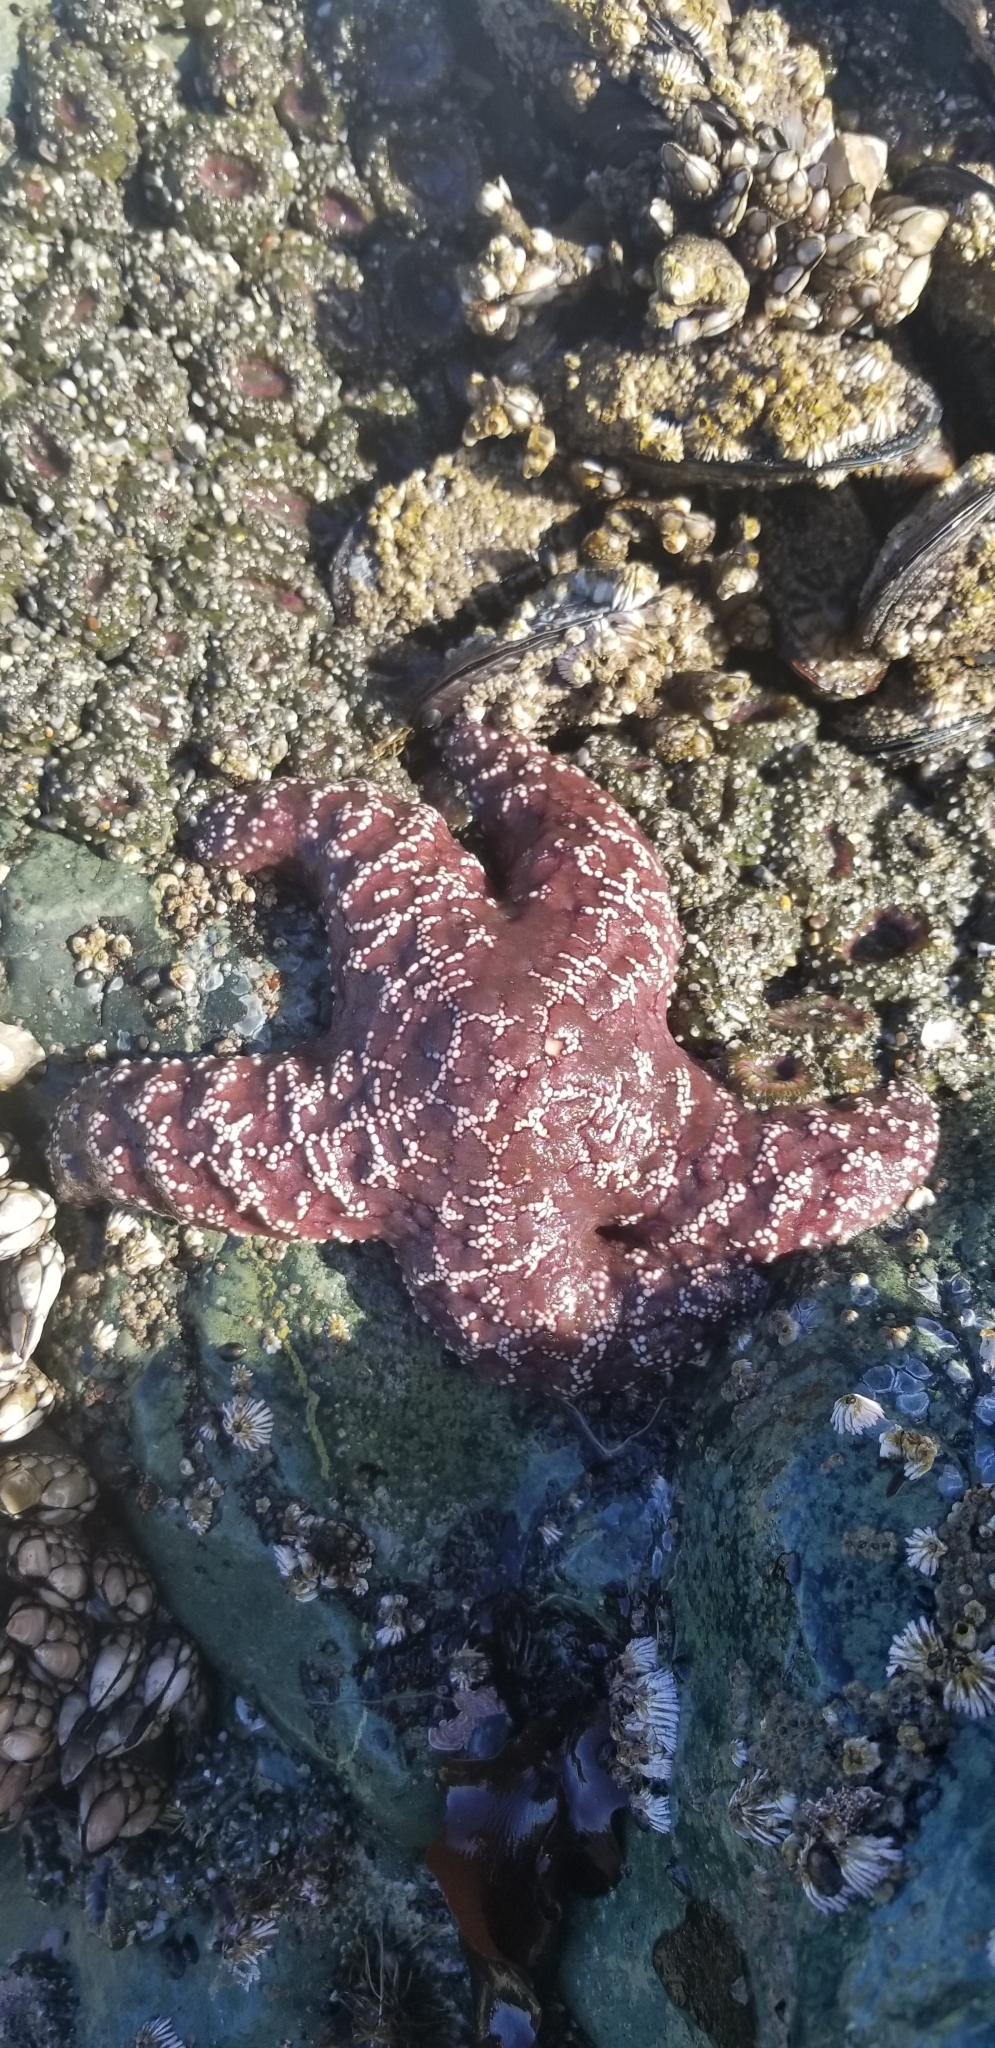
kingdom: Animalia
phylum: Echinodermata
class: Asteroidea
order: Forcipulatida
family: Asteriidae
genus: Pisaster
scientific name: Pisaster ochraceus
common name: Ochre stars
